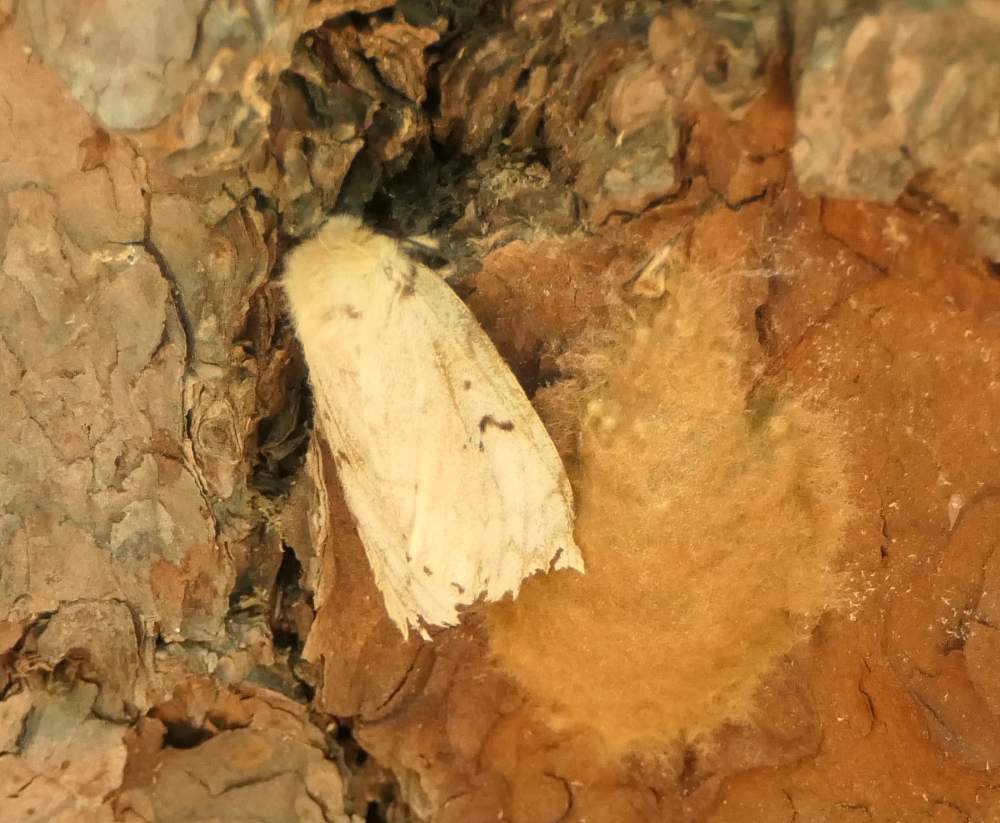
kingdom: Animalia
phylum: Arthropoda
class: Insecta
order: Lepidoptera
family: Erebidae
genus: Lymantria
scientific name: Lymantria dispar
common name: Gypsy moth
